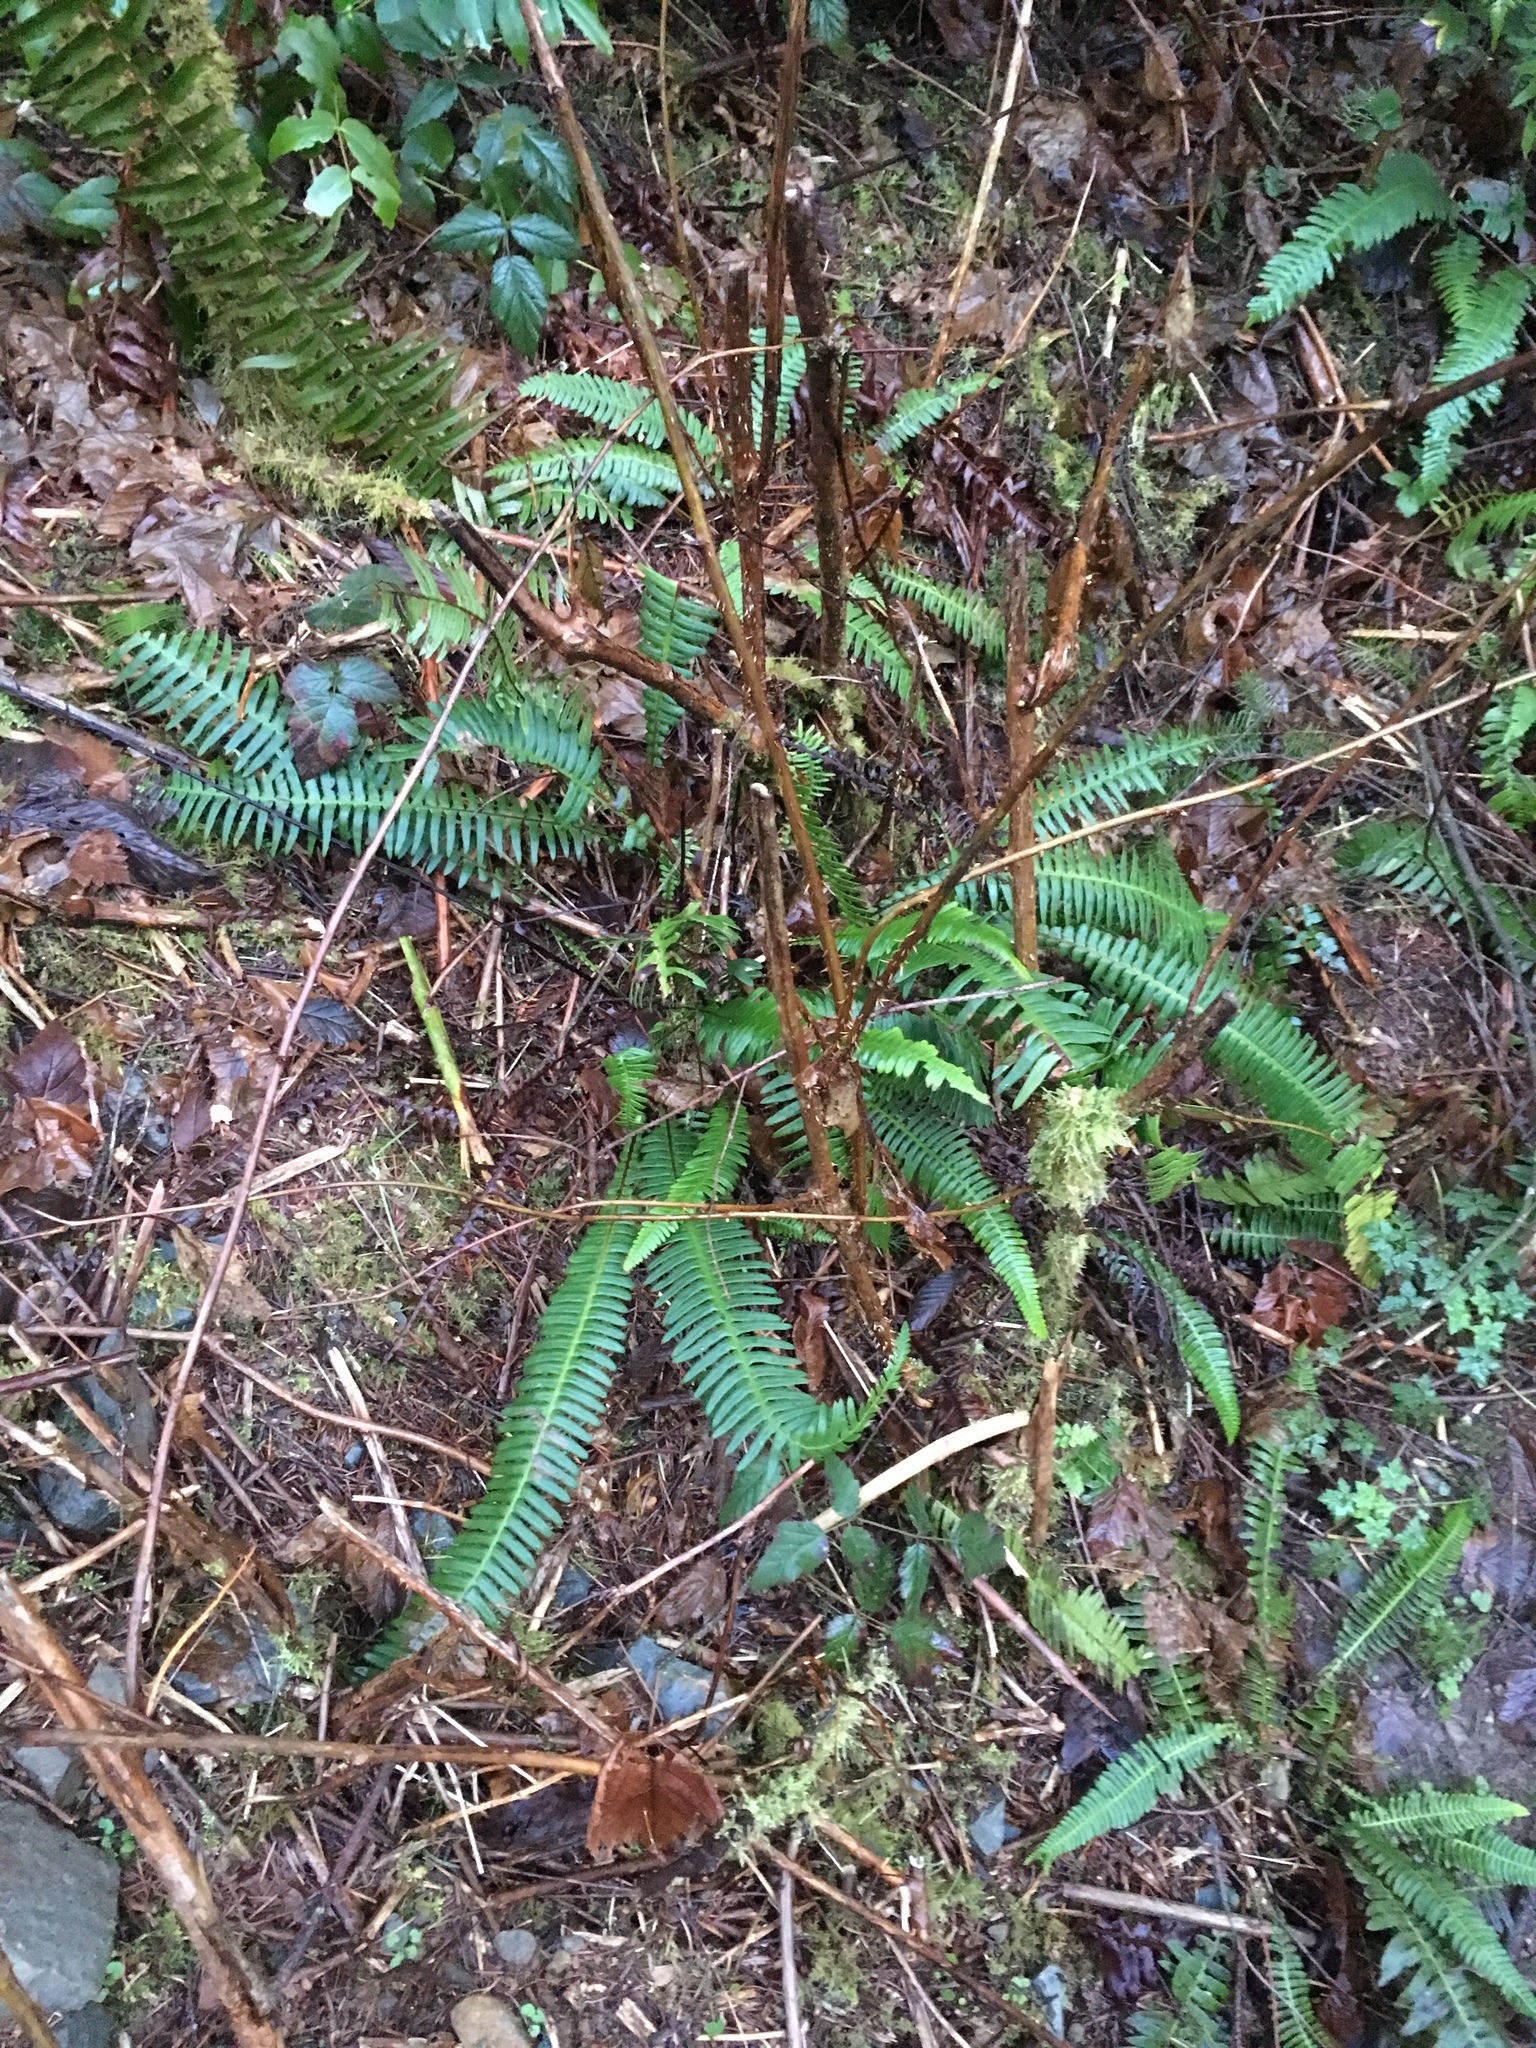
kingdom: Plantae
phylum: Tracheophyta
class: Polypodiopsida
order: Polypodiales
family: Blechnaceae
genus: Struthiopteris
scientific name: Struthiopteris spicant
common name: Deer fern
